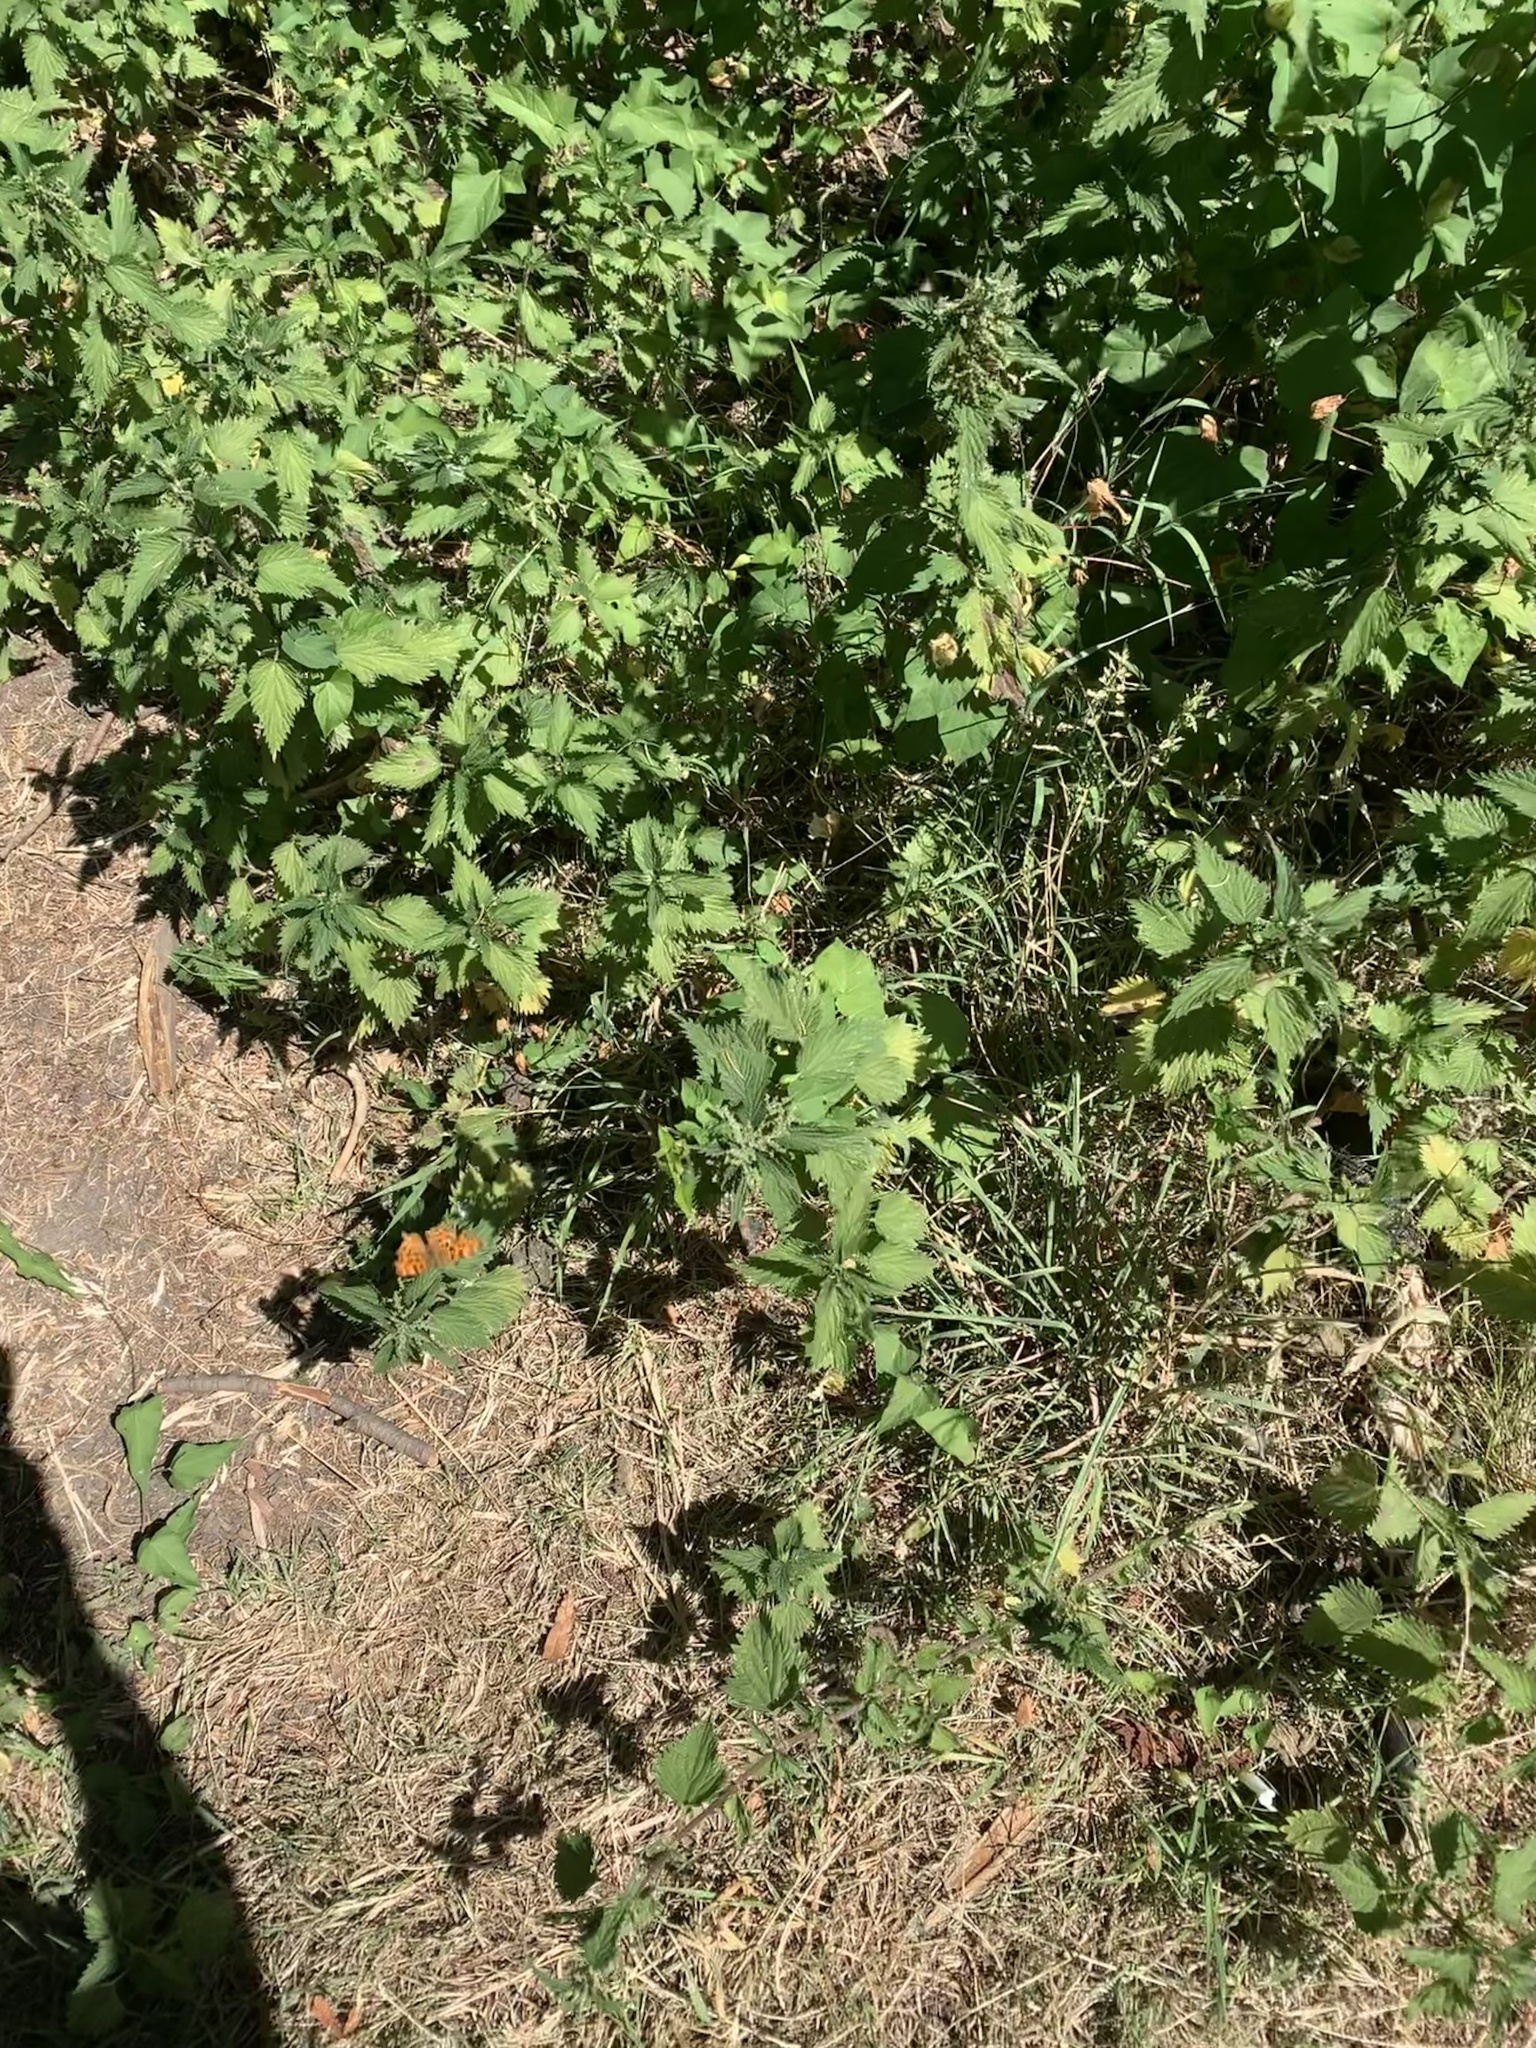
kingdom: Animalia
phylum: Arthropoda
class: Insecta
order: Lepidoptera
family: Nymphalidae
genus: Polygonia
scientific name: Polygonia c-album
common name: Comma
